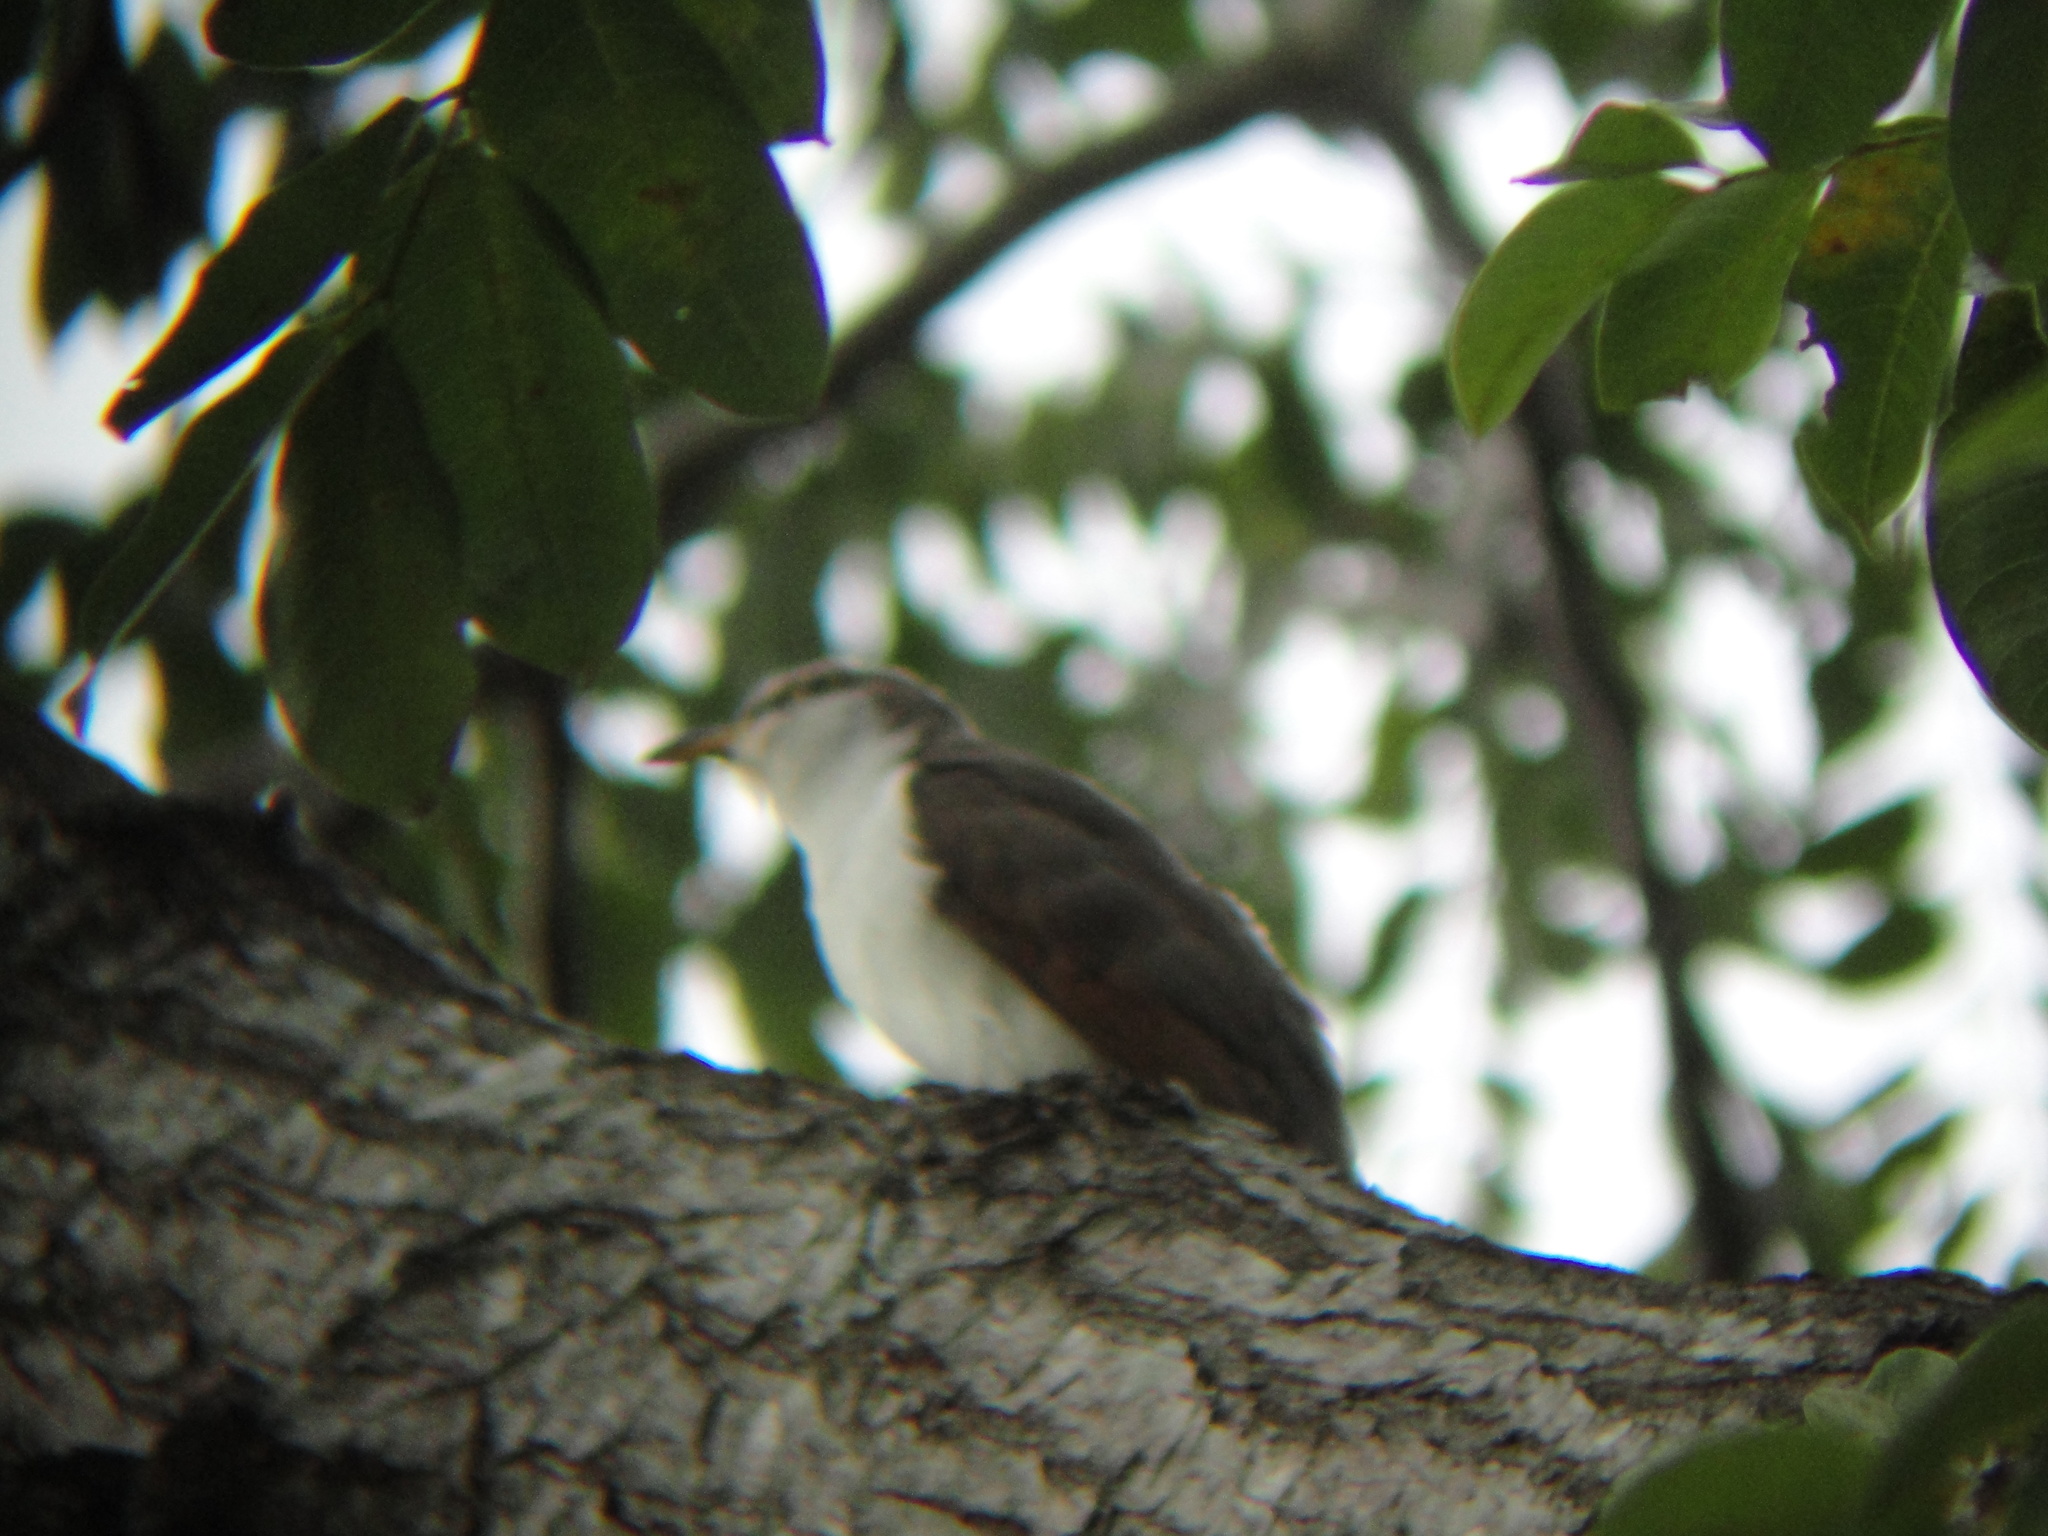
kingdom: Animalia
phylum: Chordata
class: Aves
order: Cuculiformes
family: Cuculidae
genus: Coccyzus
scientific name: Coccyzus americanus
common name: Yellow-billed cuckoo
